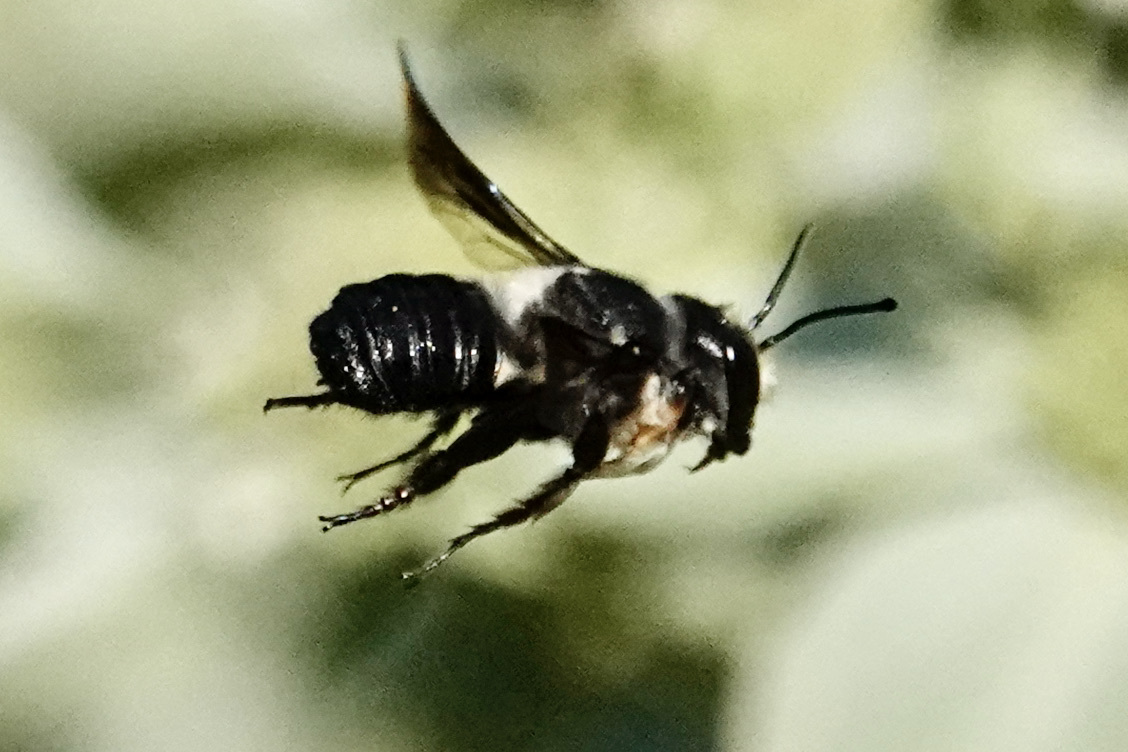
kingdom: Animalia
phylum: Arthropoda
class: Insecta
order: Hymenoptera
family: Megachilidae
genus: Megachile
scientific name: Megachile xylocopoides
